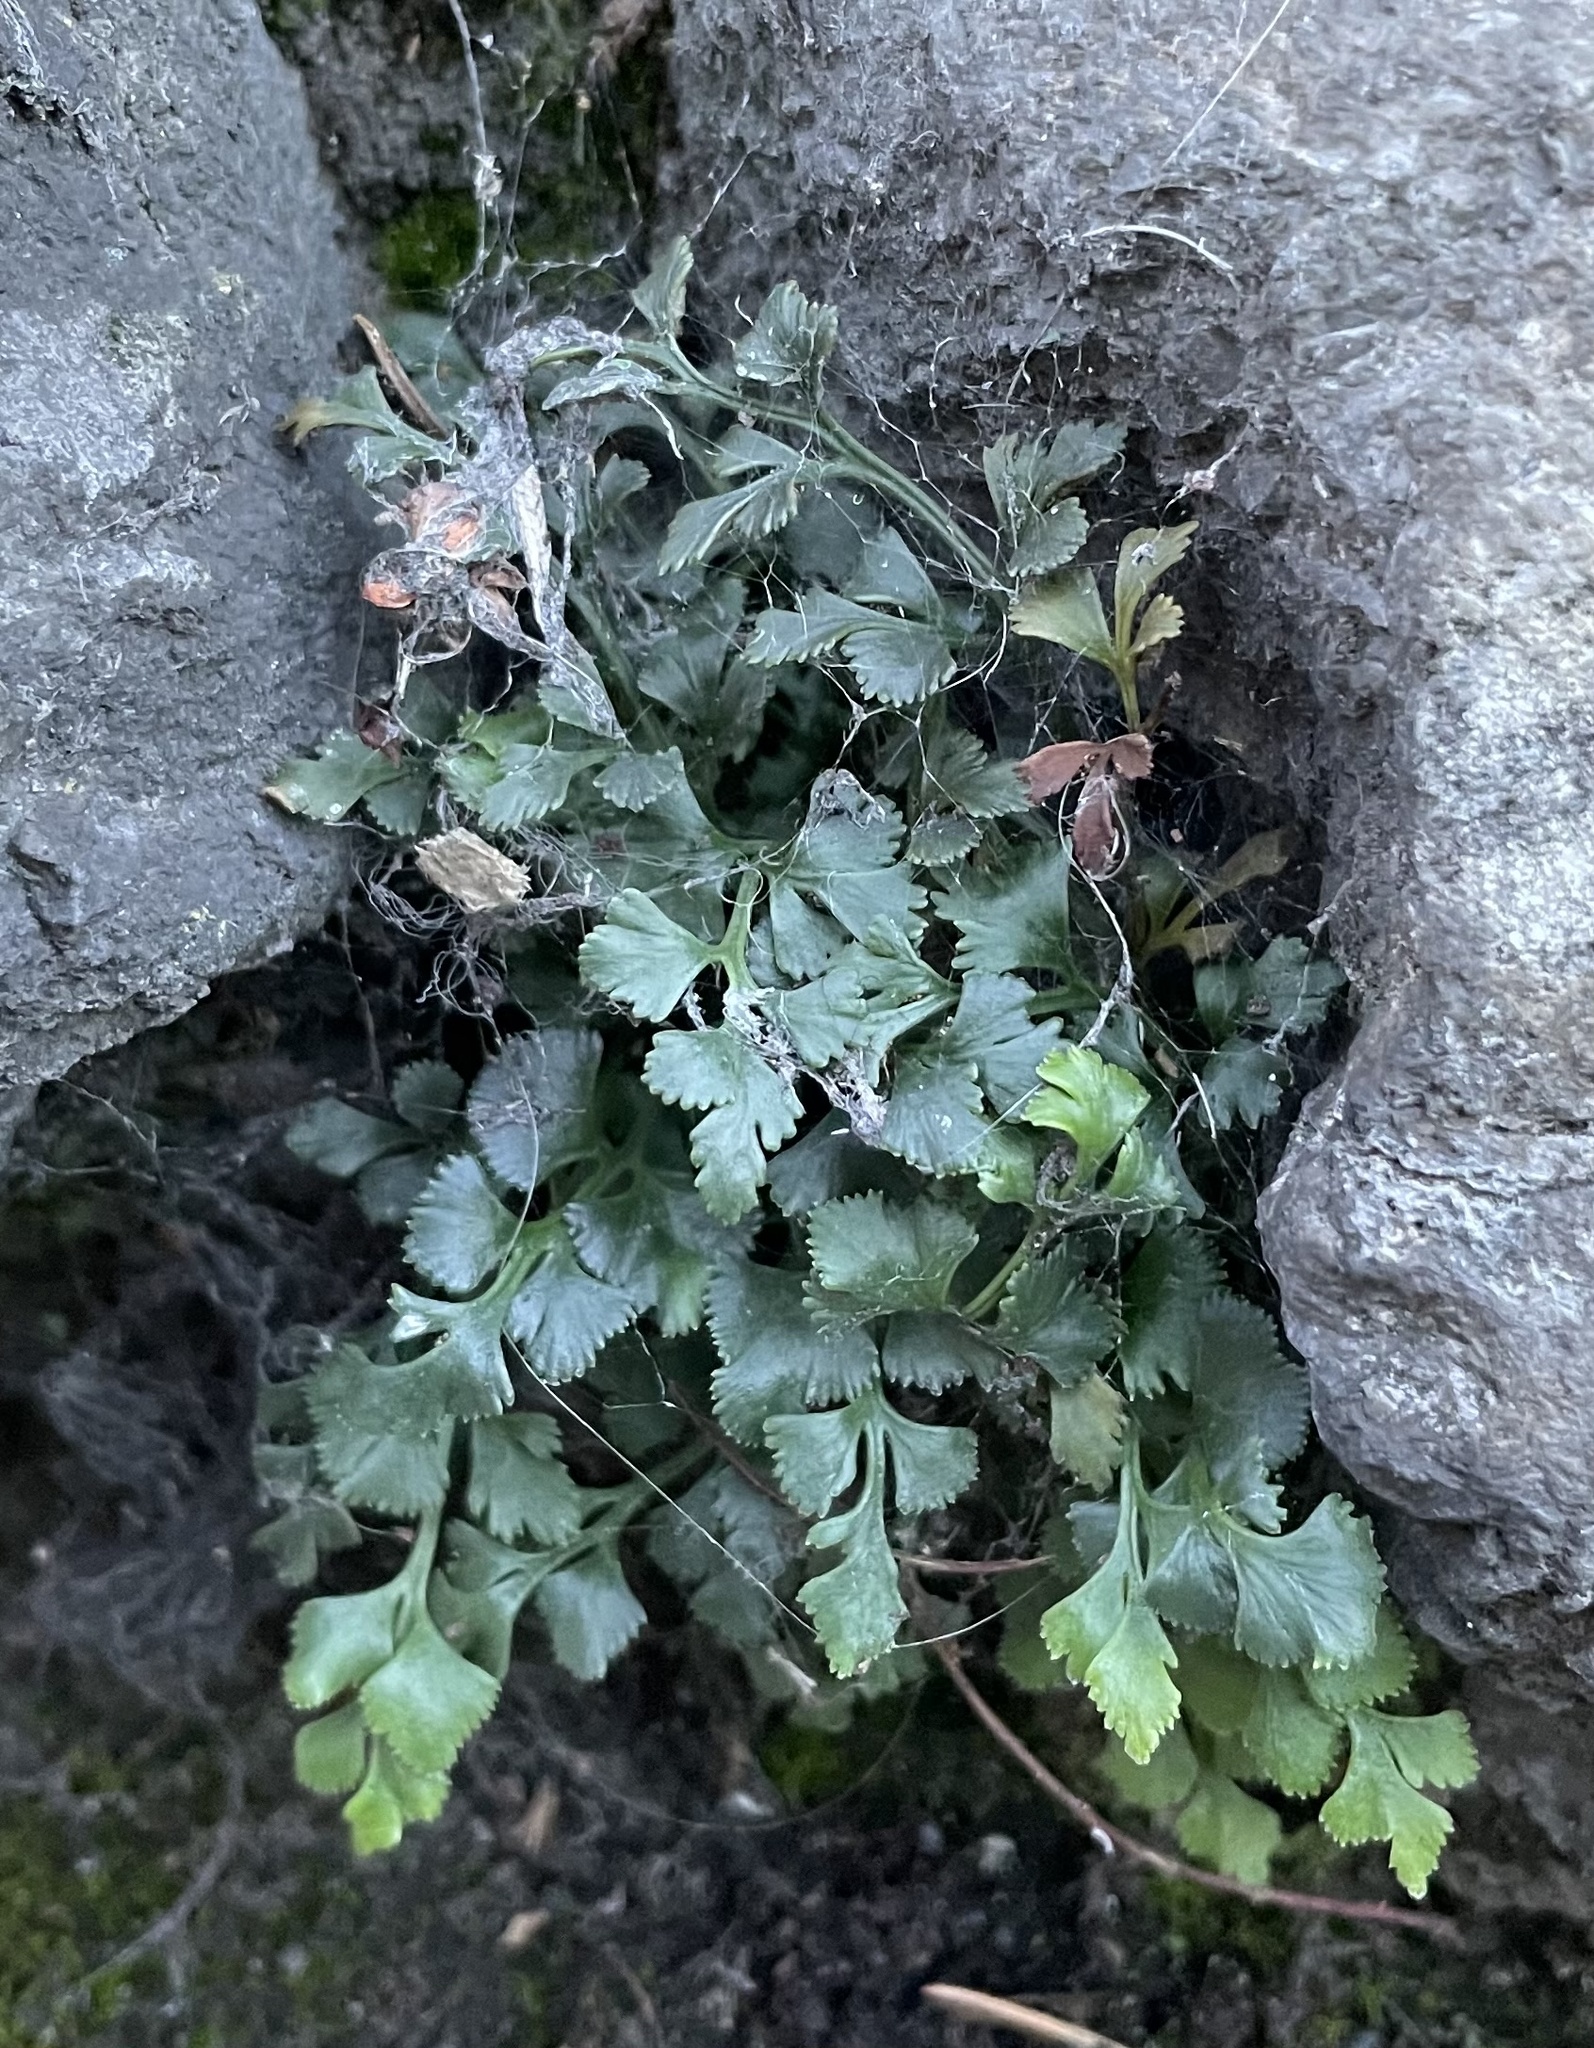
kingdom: Plantae
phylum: Tracheophyta
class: Polypodiopsida
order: Polypodiales
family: Aspleniaceae
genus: Asplenium
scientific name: Asplenium ruta-muraria
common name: Wall-rue
